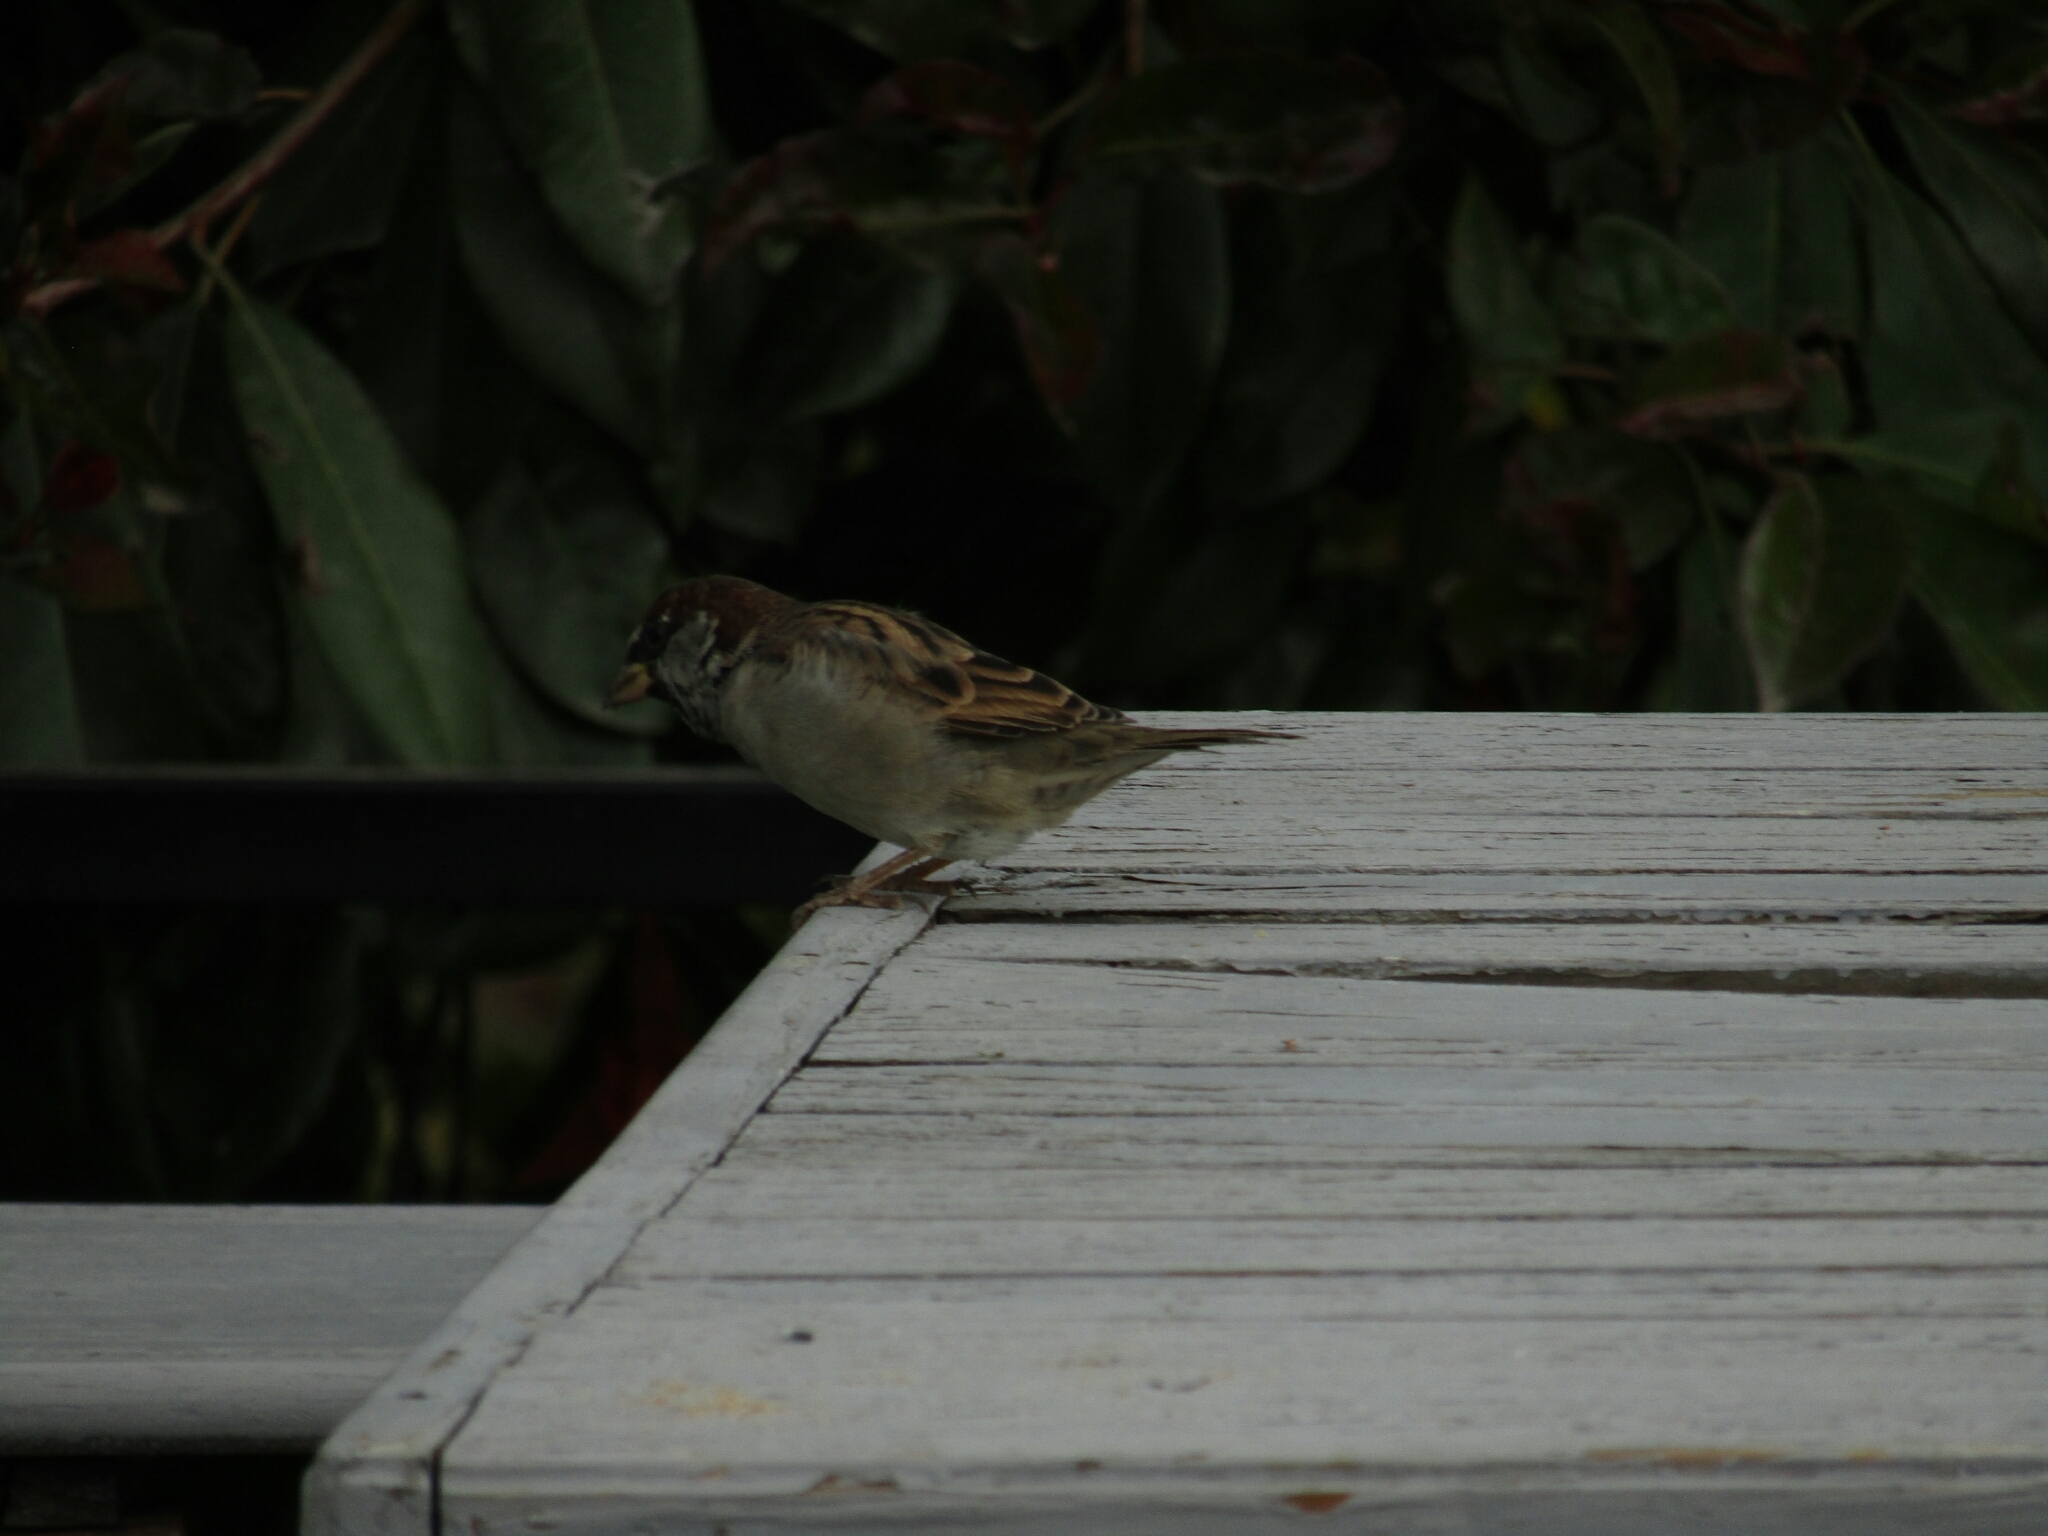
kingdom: Animalia
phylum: Chordata
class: Aves
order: Passeriformes
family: Passeridae
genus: Passer
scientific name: Passer domesticus
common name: House sparrow
